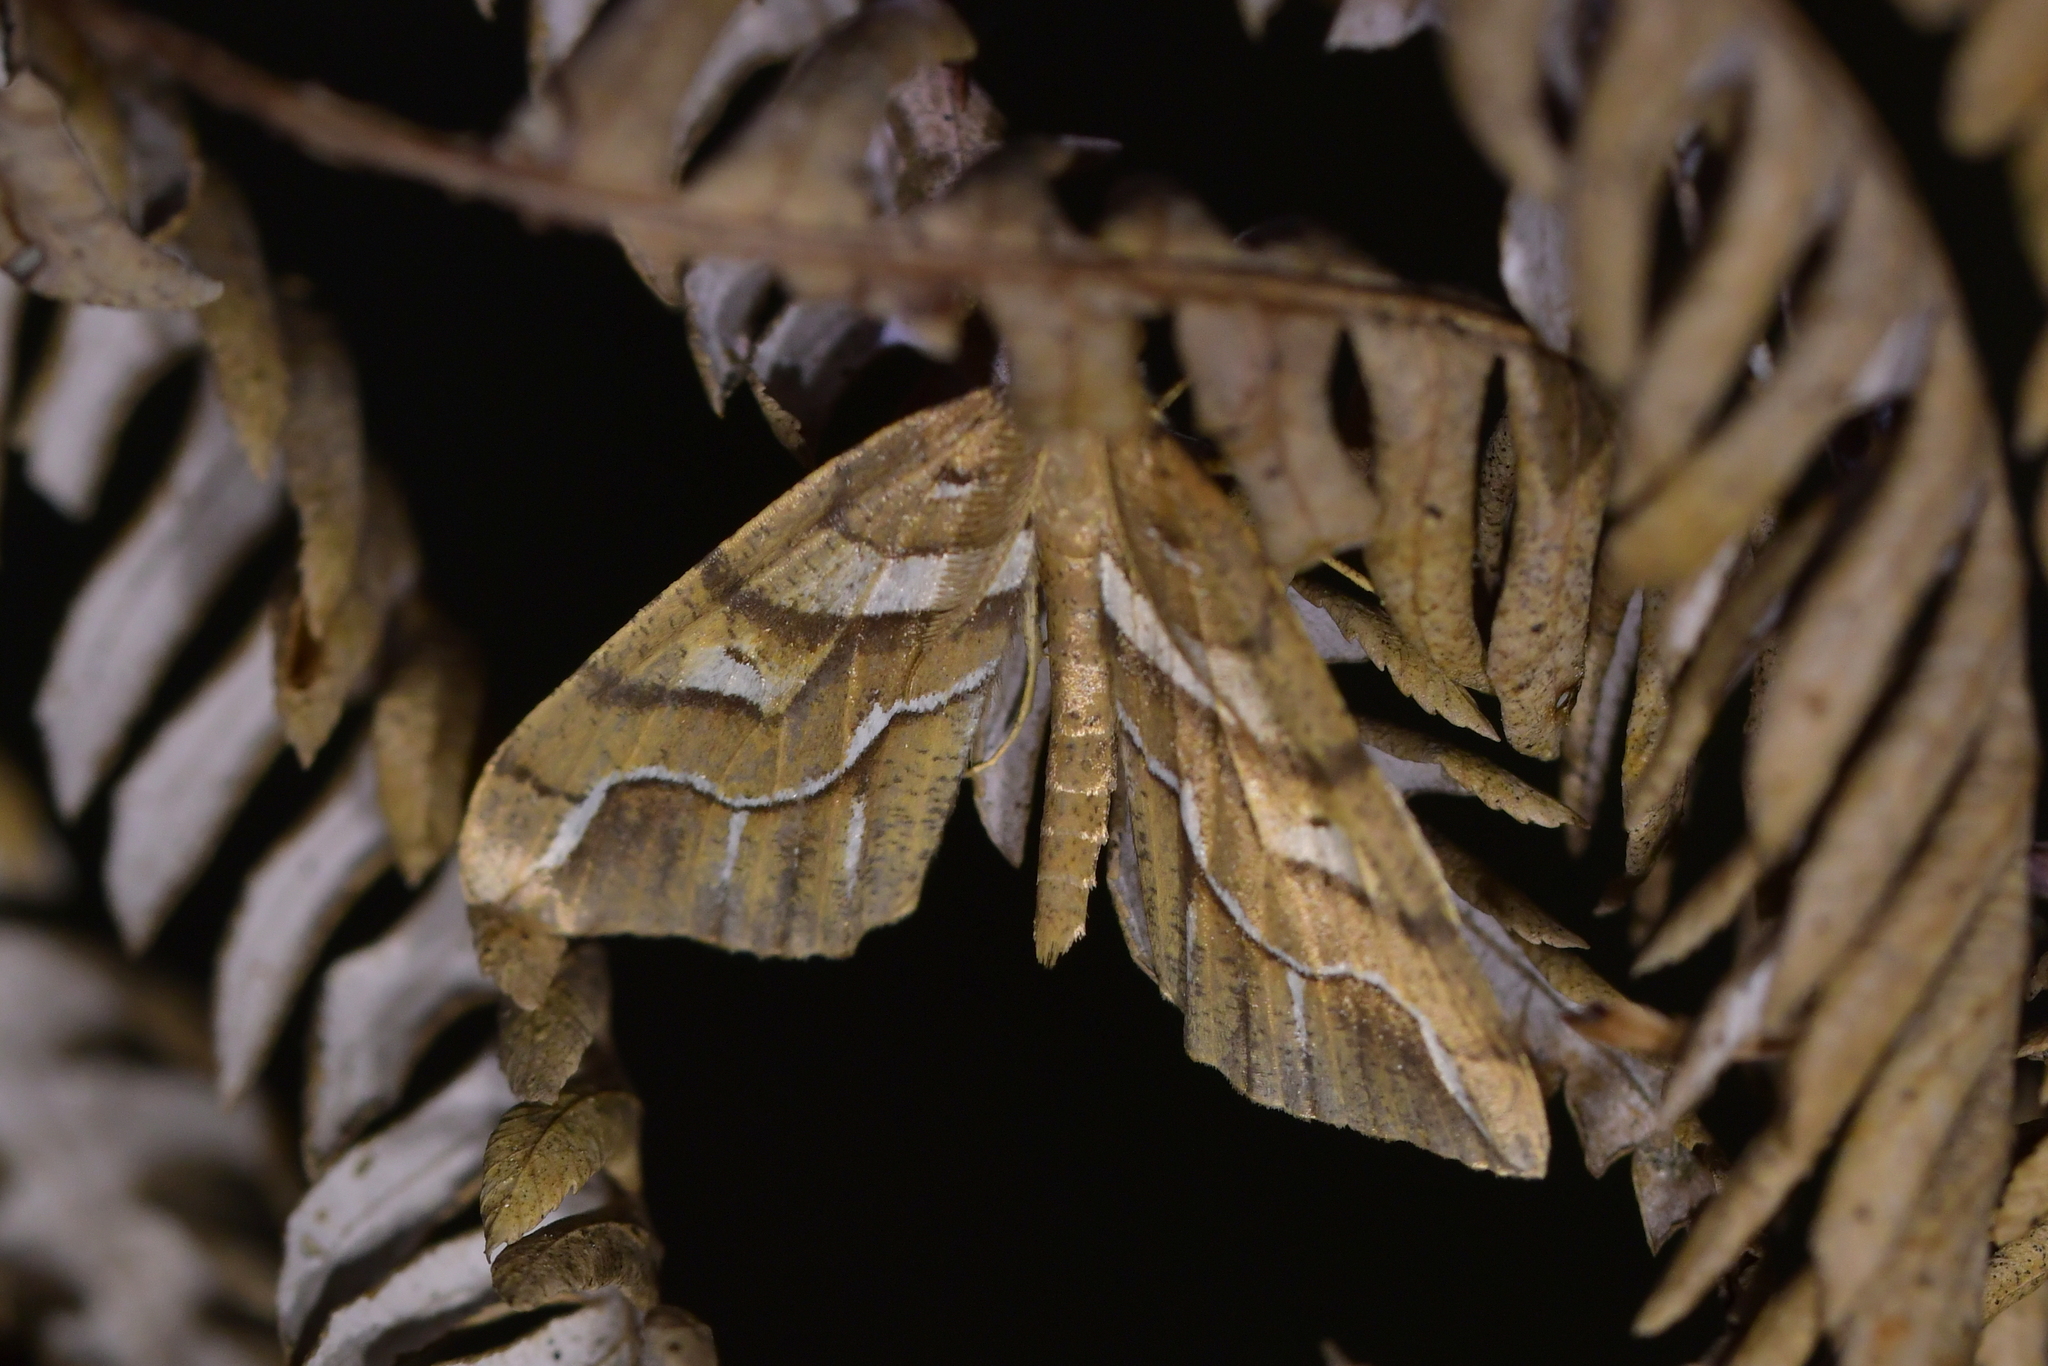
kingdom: Animalia
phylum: Arthropoda
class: Insecta
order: Lepidoptera
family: Geometridae
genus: Chalastra
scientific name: Chalastra aristarcha
